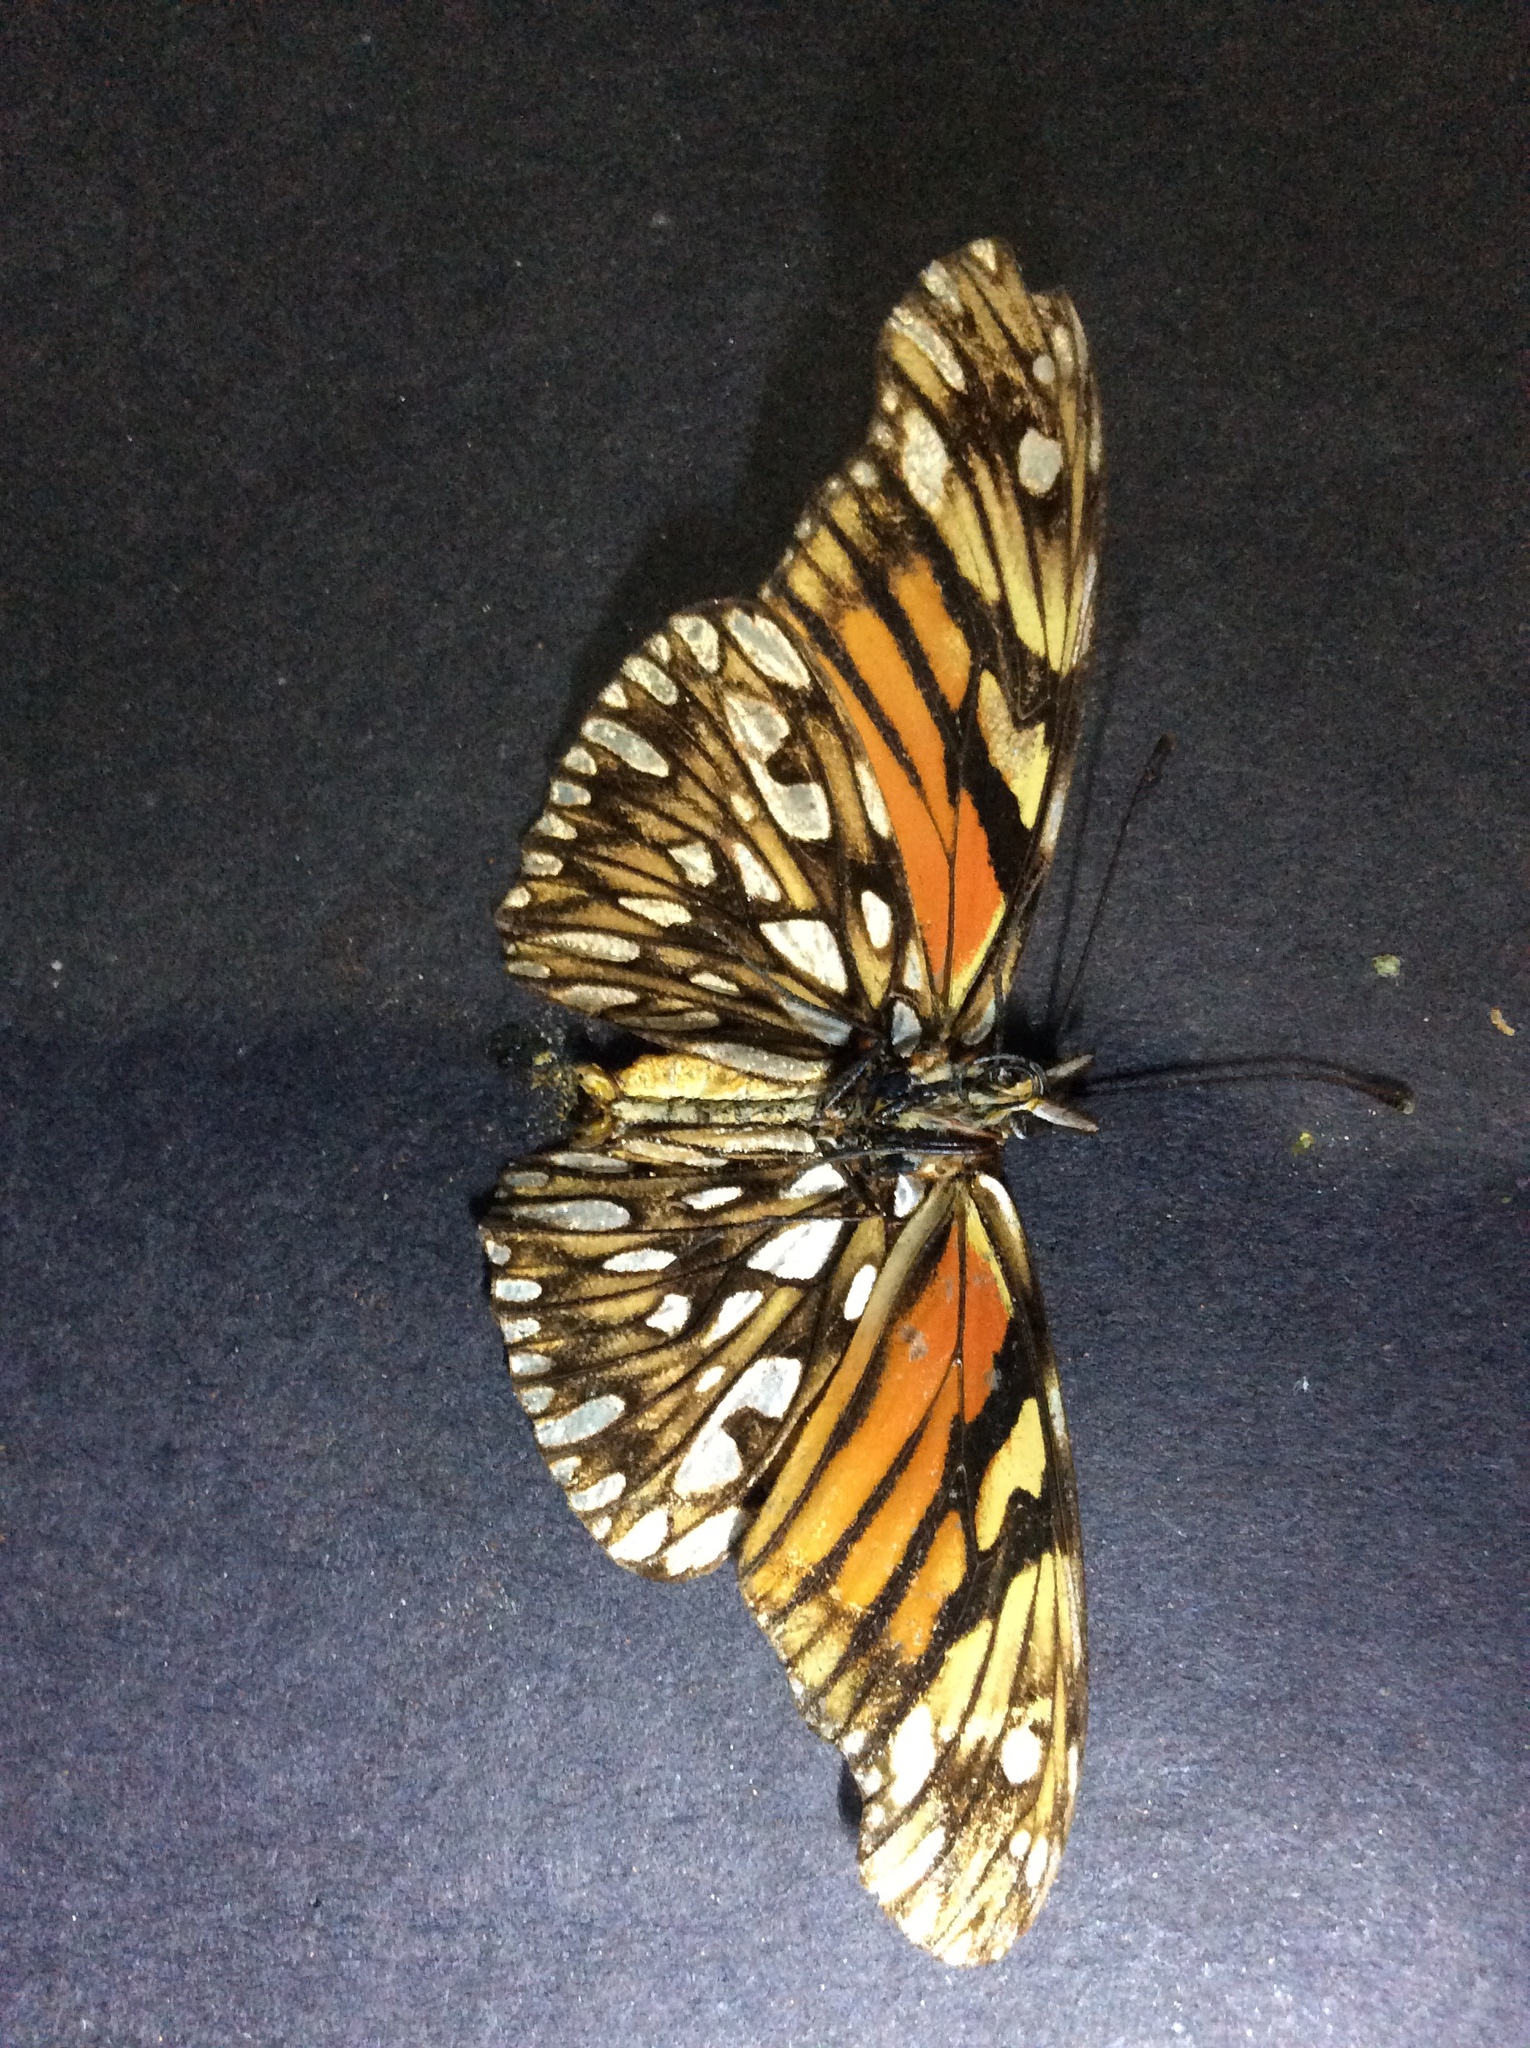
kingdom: Animalia
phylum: Arthropoda
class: Insecta
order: Lepidoptera
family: Nymphalidae
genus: Dione
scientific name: Dione juno
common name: Juno silverspot
